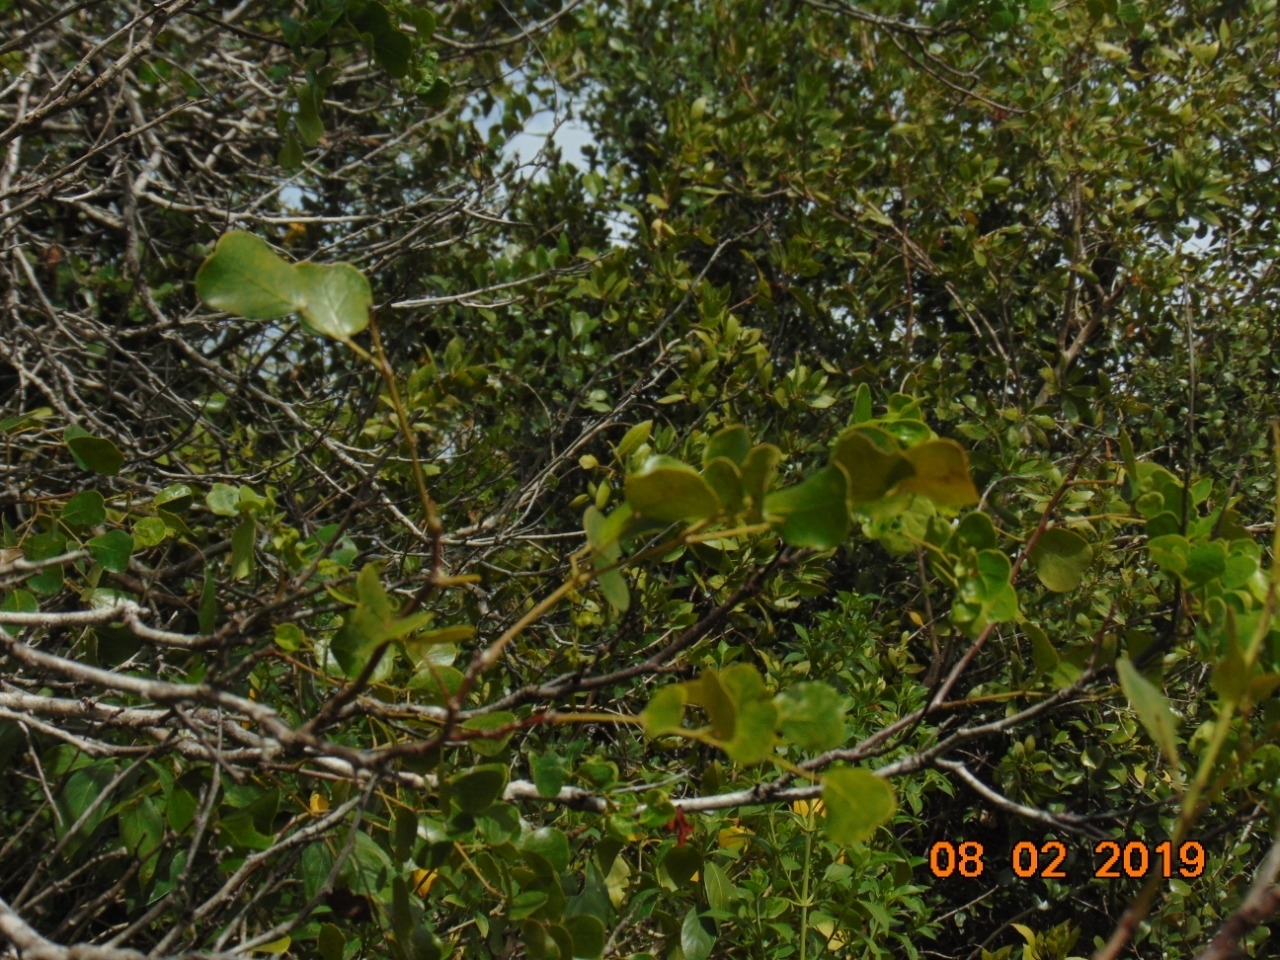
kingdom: Plantae
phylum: Tracheophyta
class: Magnoliopsida
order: Fabales
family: Fabaceae
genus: Tara
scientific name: Tara vesicaria
